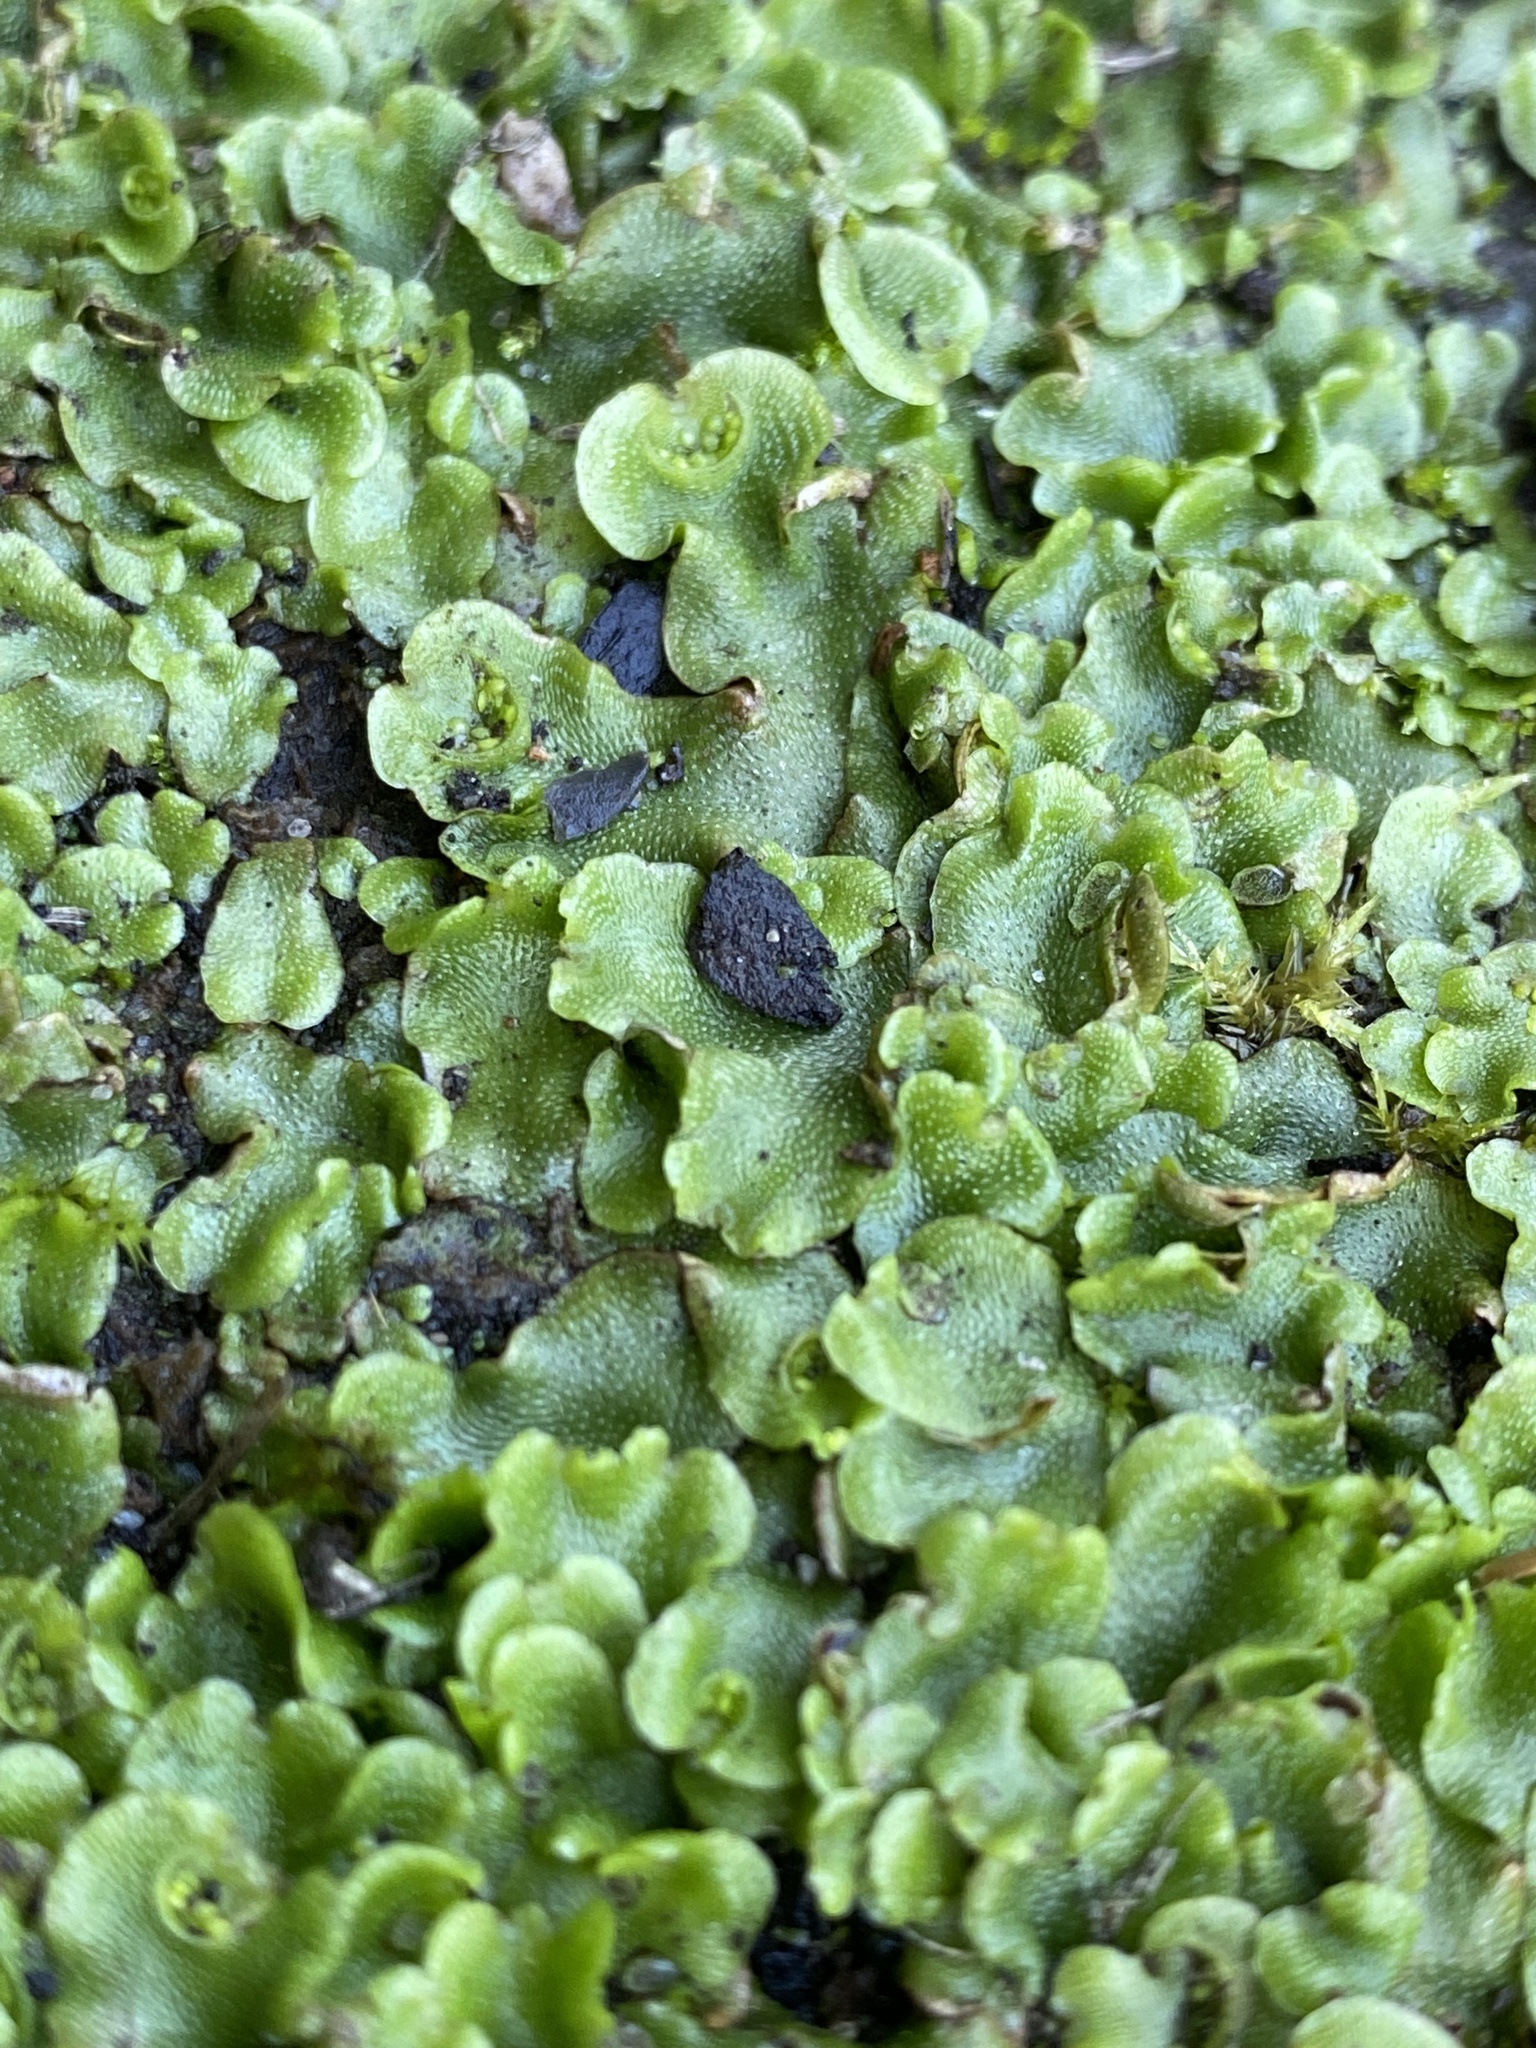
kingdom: Plantae
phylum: Marchantiophyta
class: Marchantiopsida
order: Lunulariales
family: Lunulariaceae
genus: Lunularia
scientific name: Lunularia cruciata
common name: Crescent-cup liverwort
